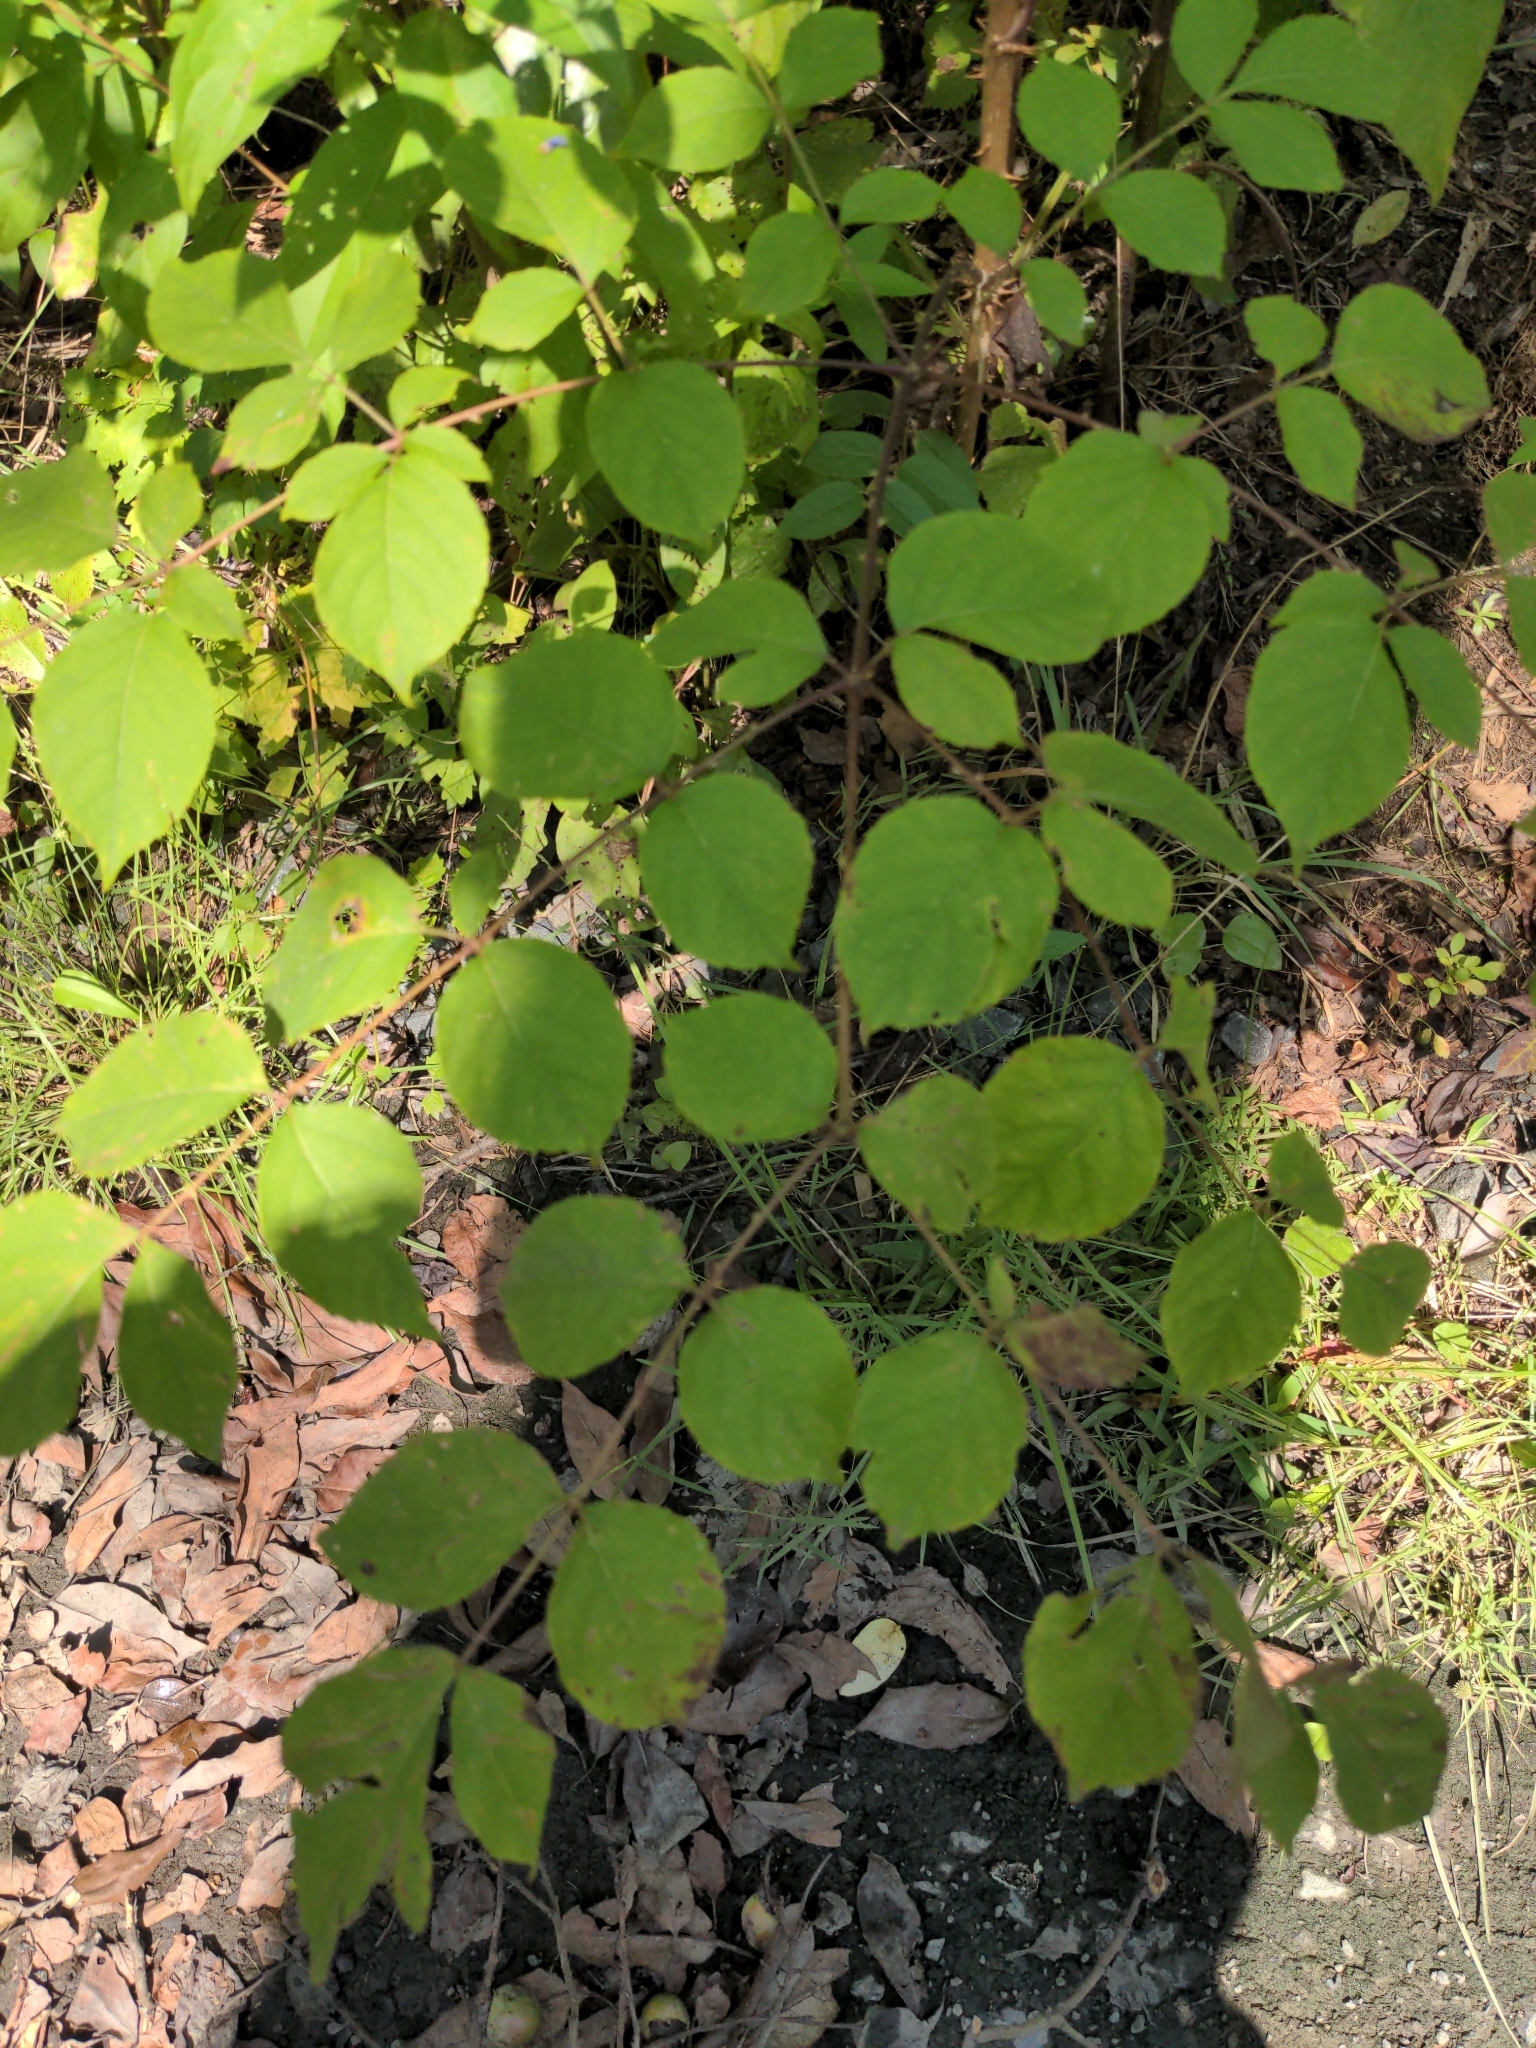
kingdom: Plantae
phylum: Tracheophyta
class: Magnoliopsida
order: Apiales
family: Araliaceae
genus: Aralia
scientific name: Aralia spinosa
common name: Hercules'-club
